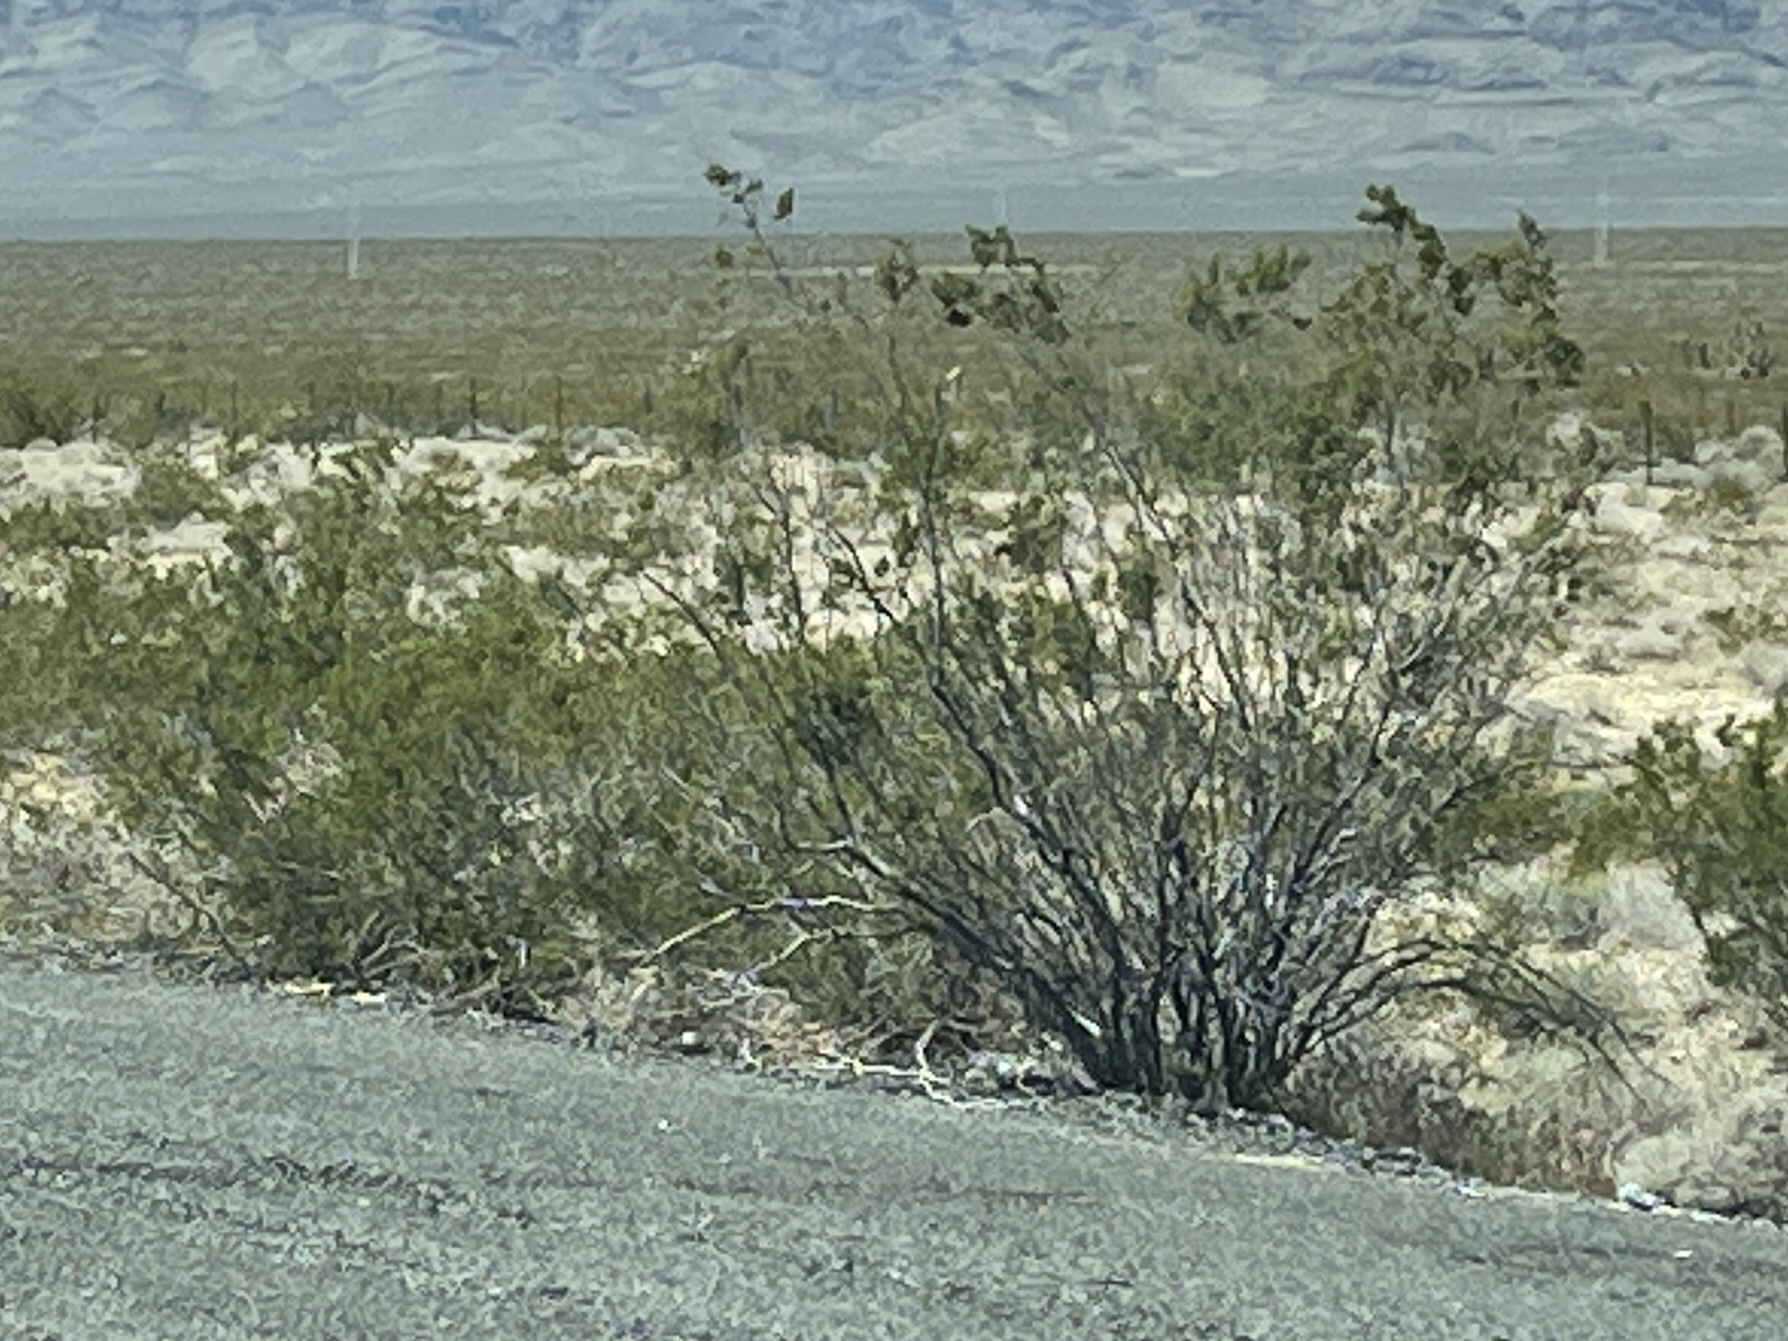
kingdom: Plantae
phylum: Tracheophyta
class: Magnoliopsida
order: Zygophyllales
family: Zygophyllaceae
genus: Larrea
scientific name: Larrea tridentata
